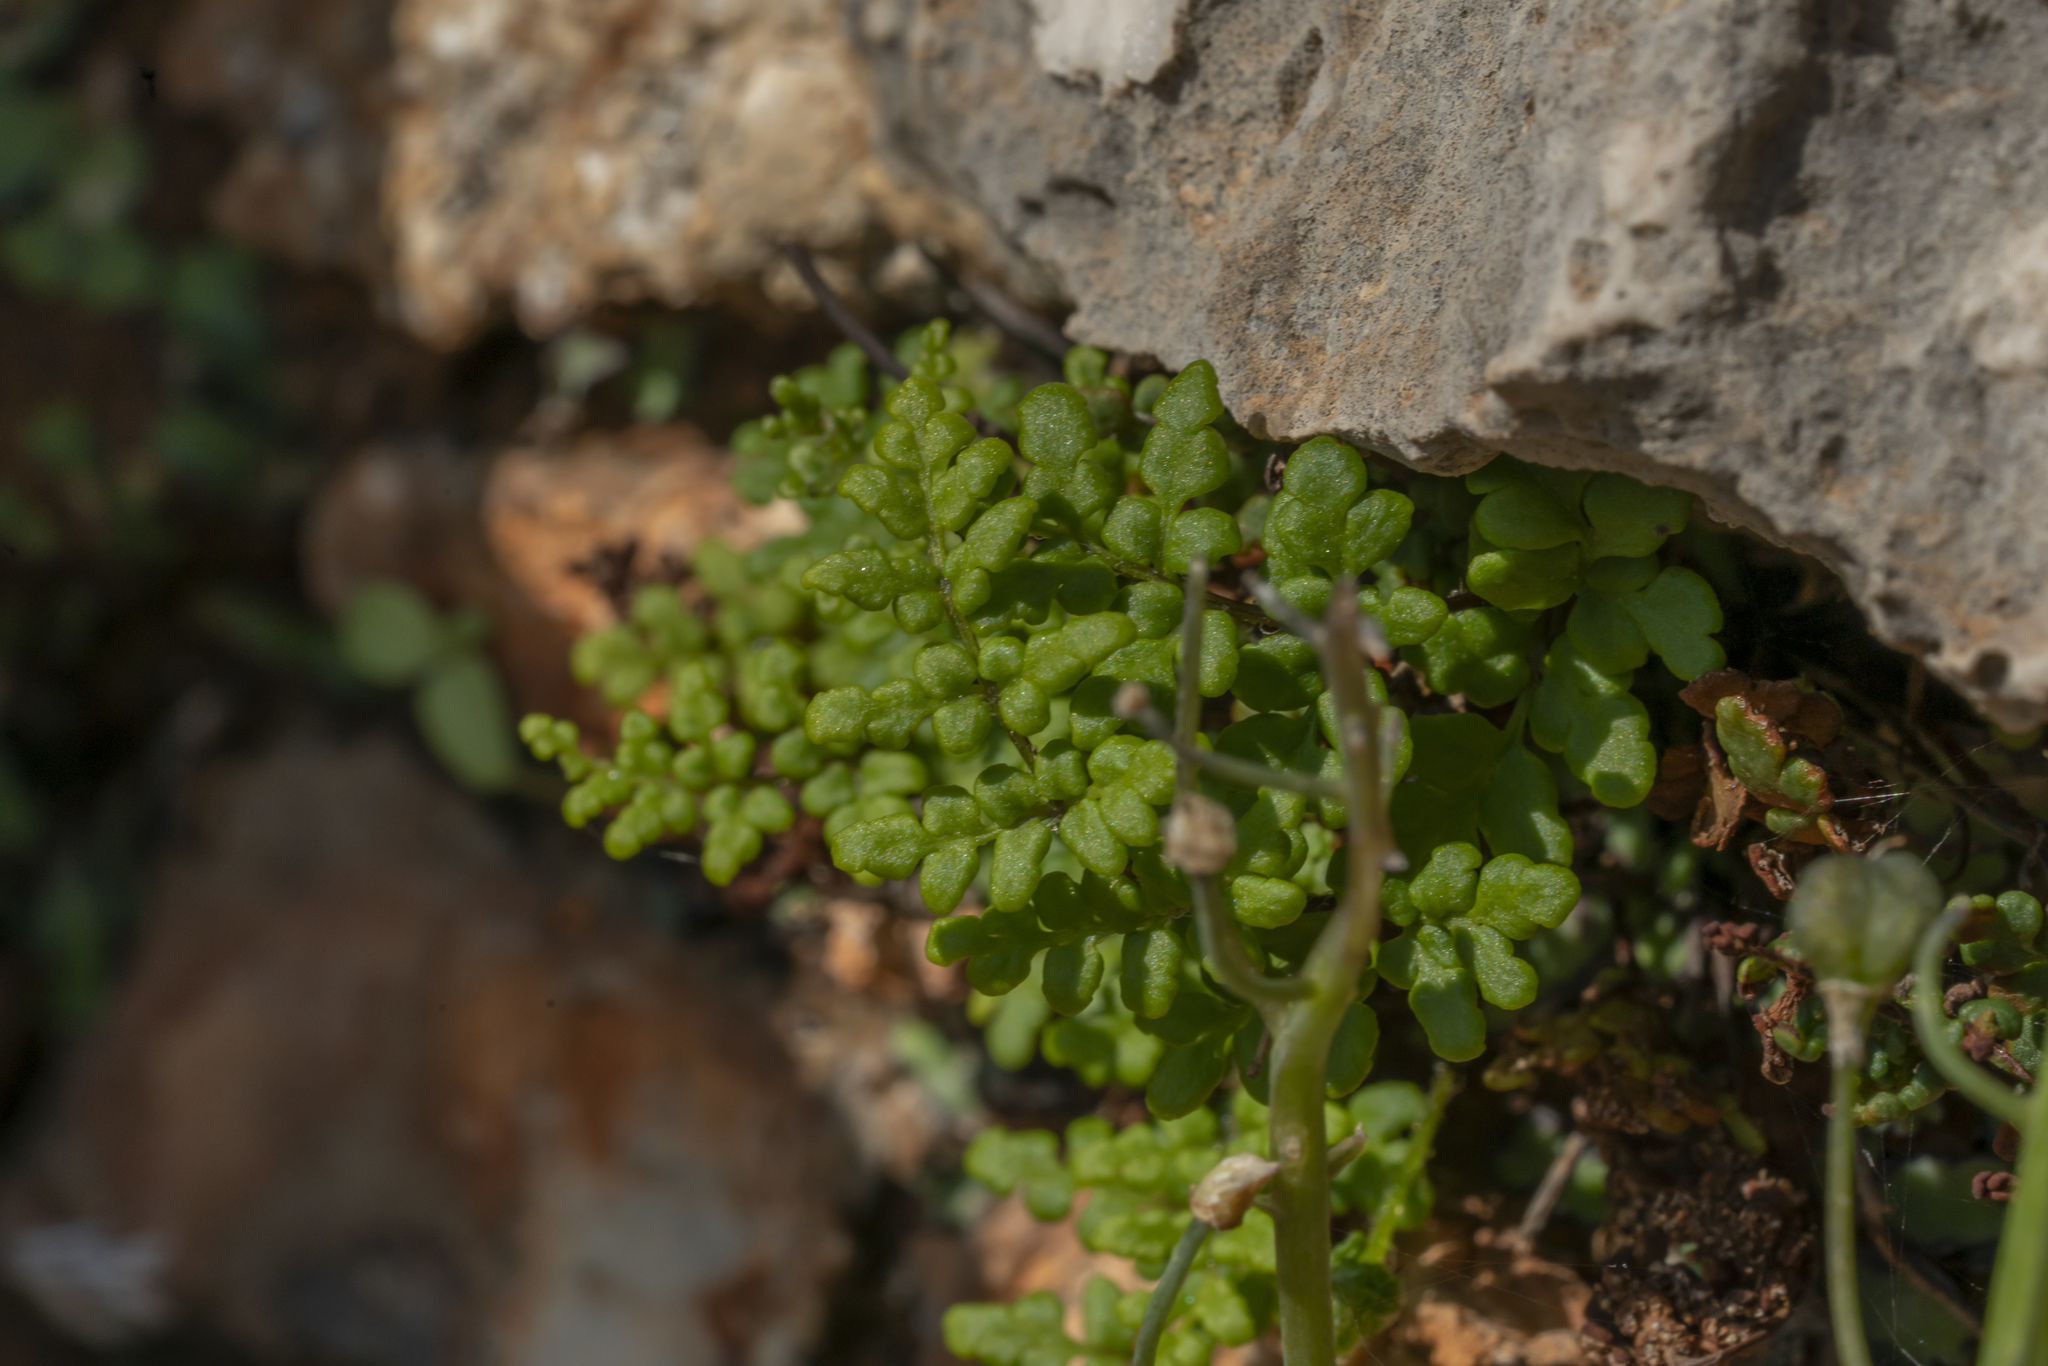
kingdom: Plantae
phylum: Tracheophyta
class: Polypodiopsida
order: Polypodiales
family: Pteridaceae
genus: Oeosporangium
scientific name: Oeosporangium pteridioides
